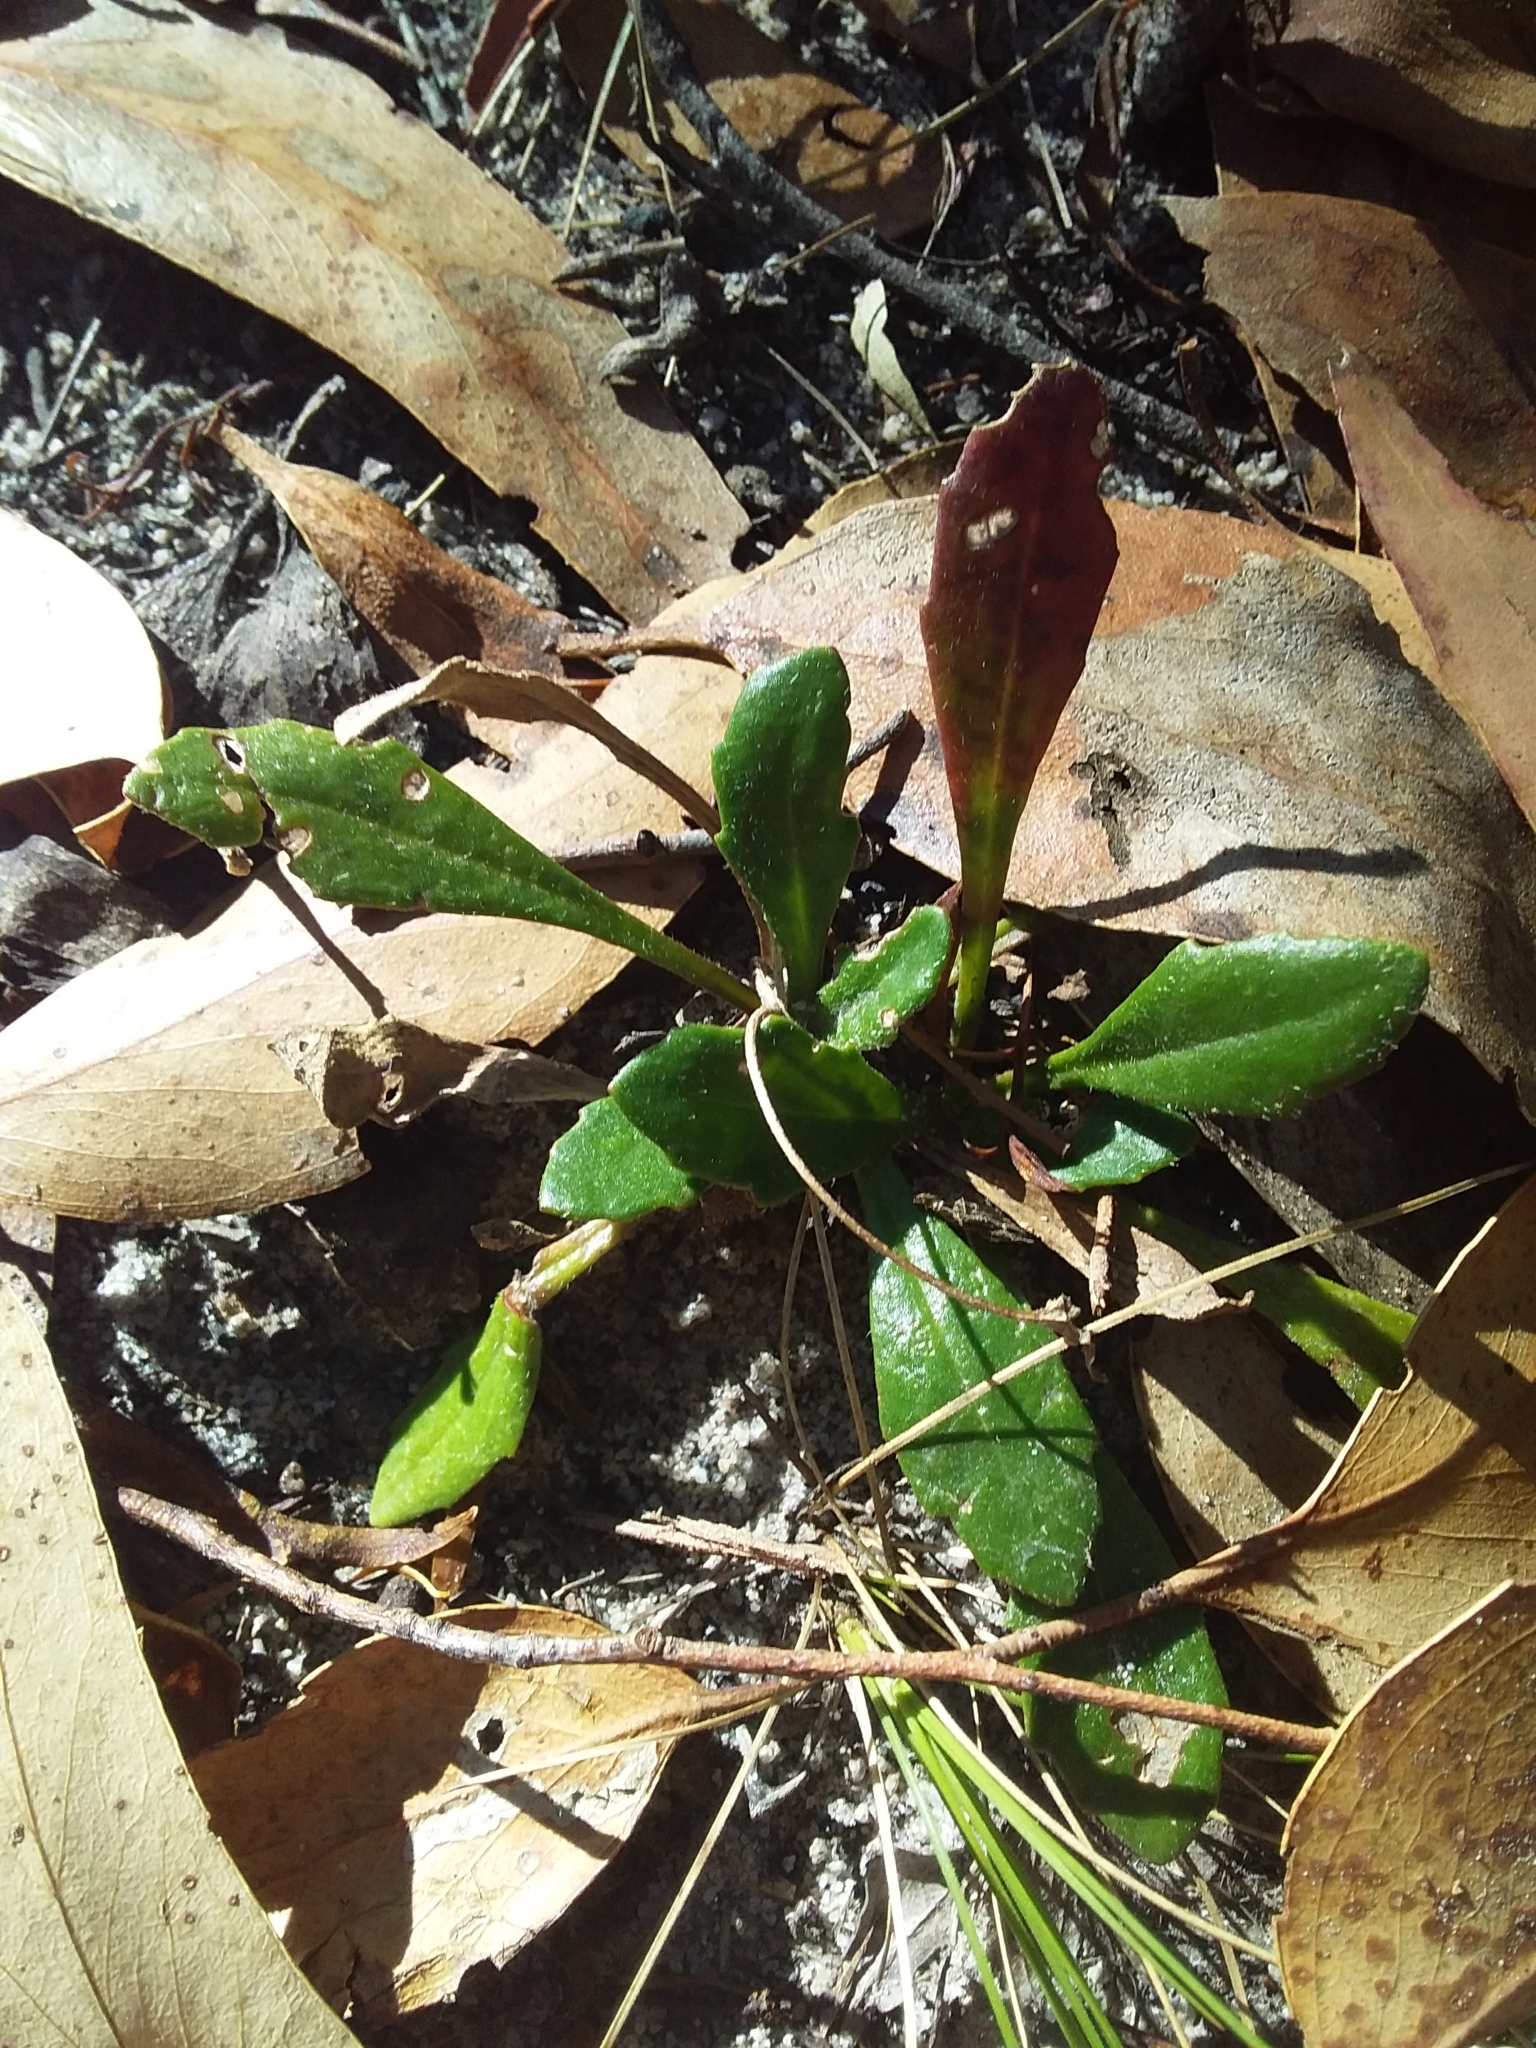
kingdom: Plantae
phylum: Tracheophyta
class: Magnoliopsida
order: Asterales
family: Goodeniaceae
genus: Goodenia
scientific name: Goodenia blackiana
